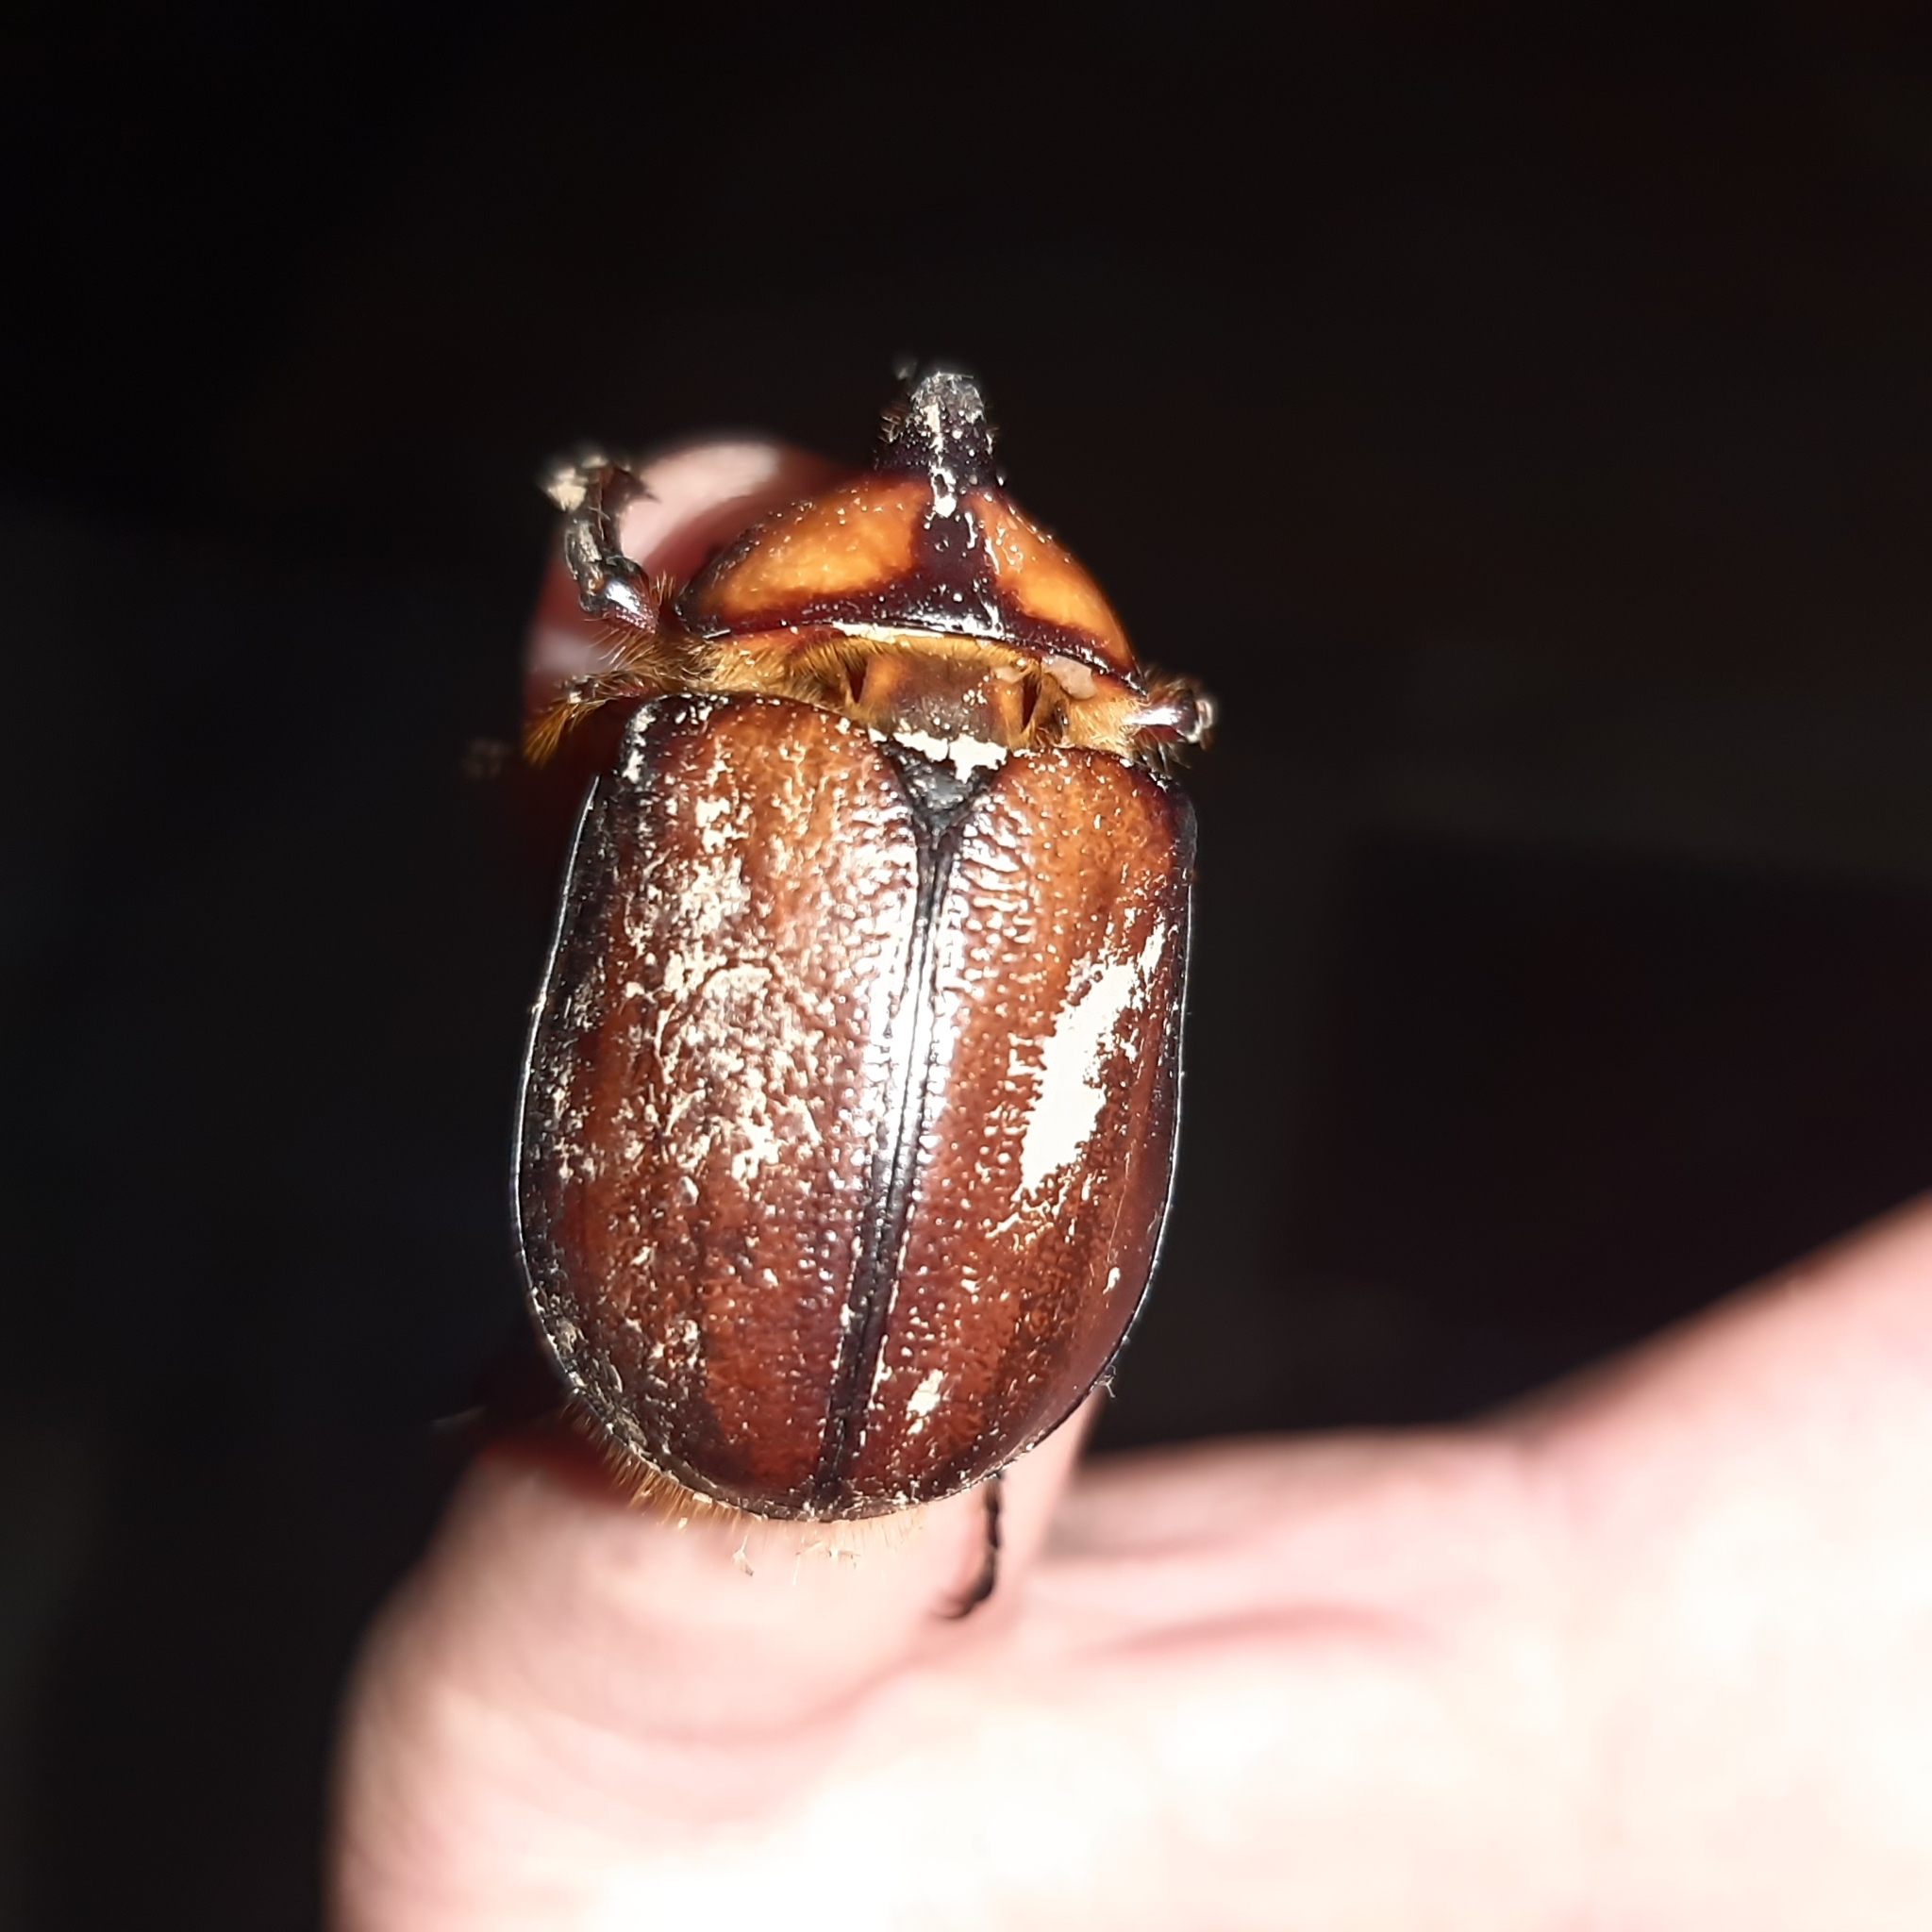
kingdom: Animalia
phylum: Arthropoda
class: Insecta
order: Coleoptera
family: Scarabaeidae
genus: Golofa
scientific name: Golofa solisi
